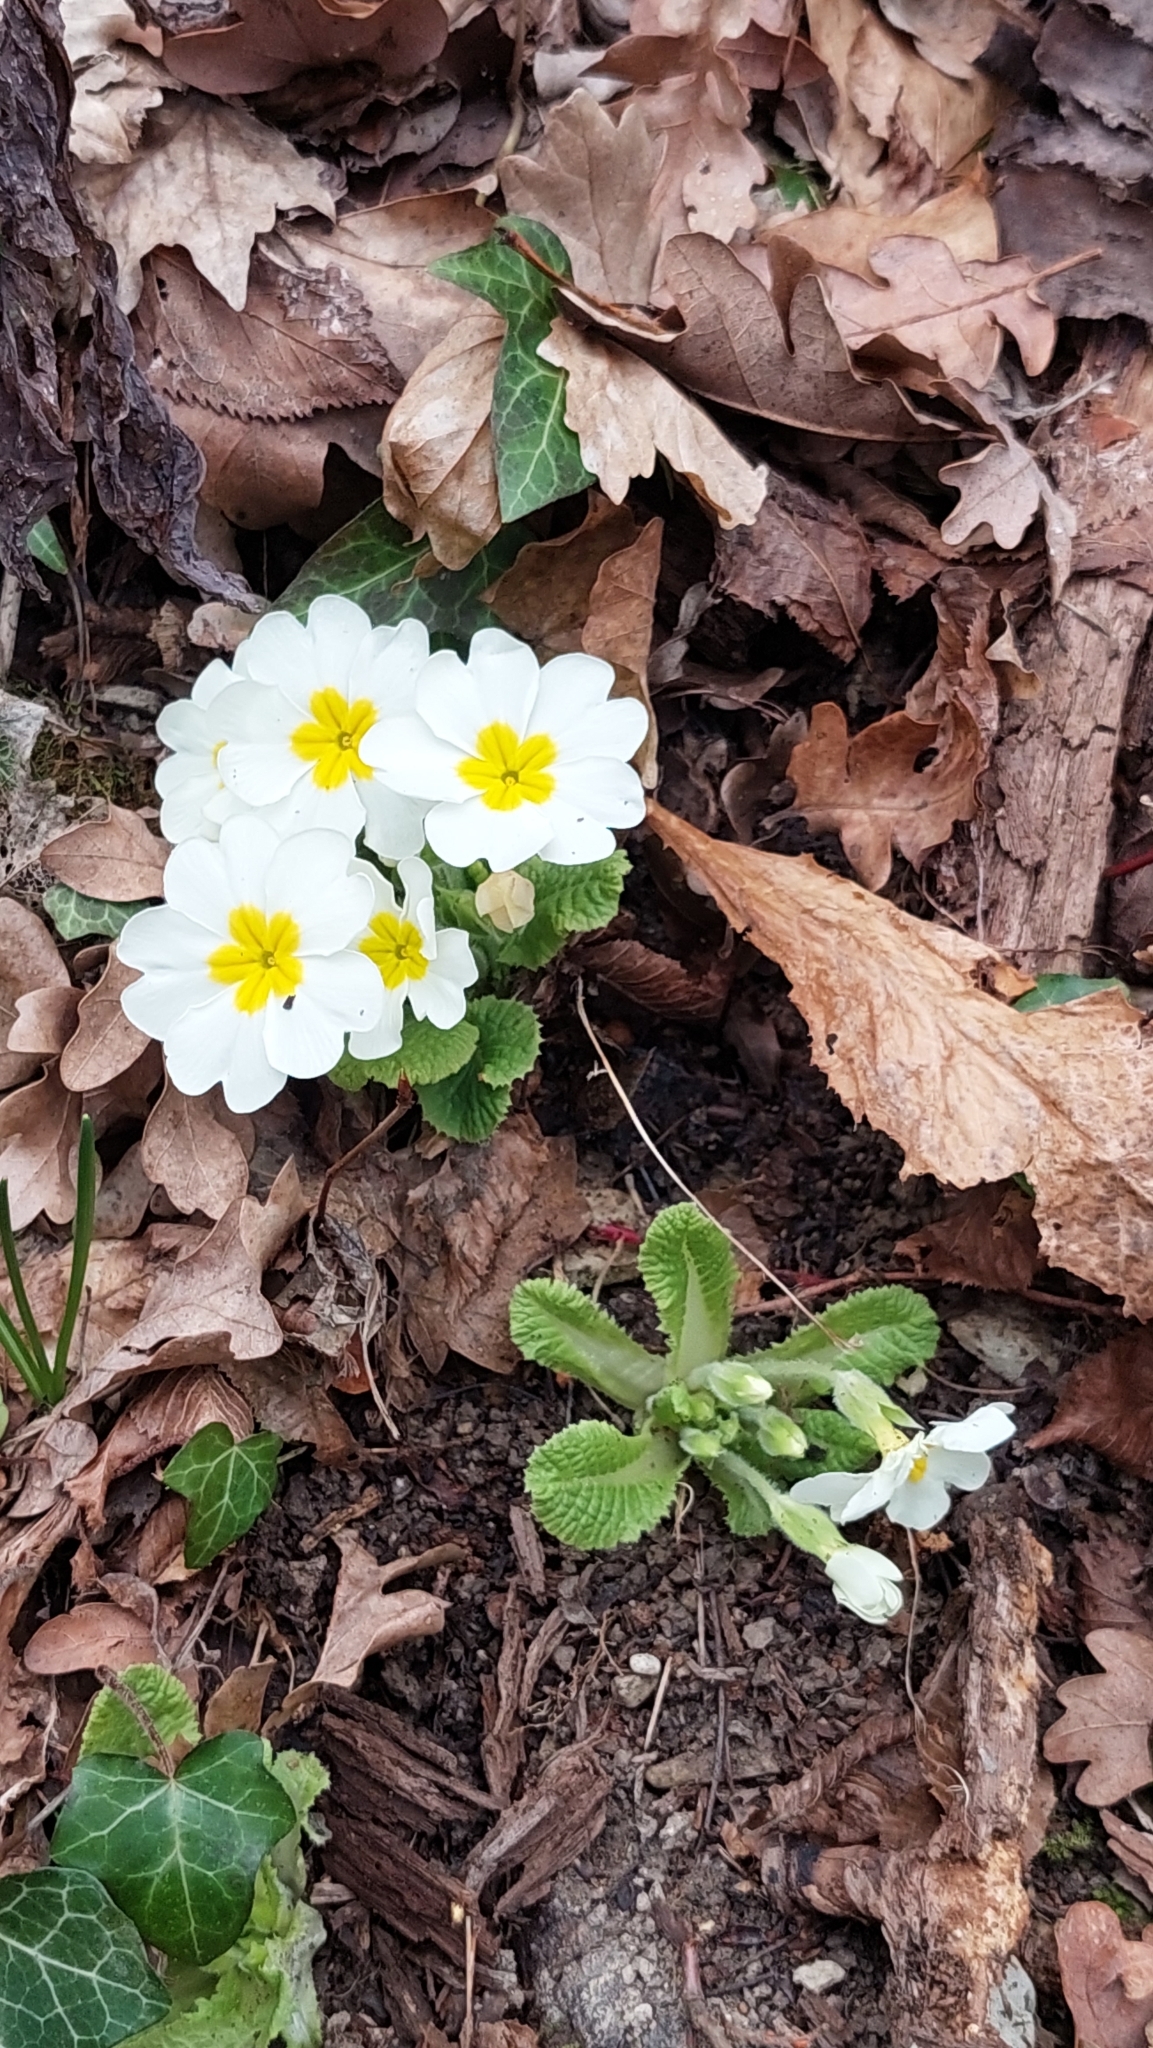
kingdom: Plantae
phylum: Tracheophyta
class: Magnoliopsida
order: Ericales
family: Primulaceae
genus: Primula
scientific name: Primula vulgaris
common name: Primrose
